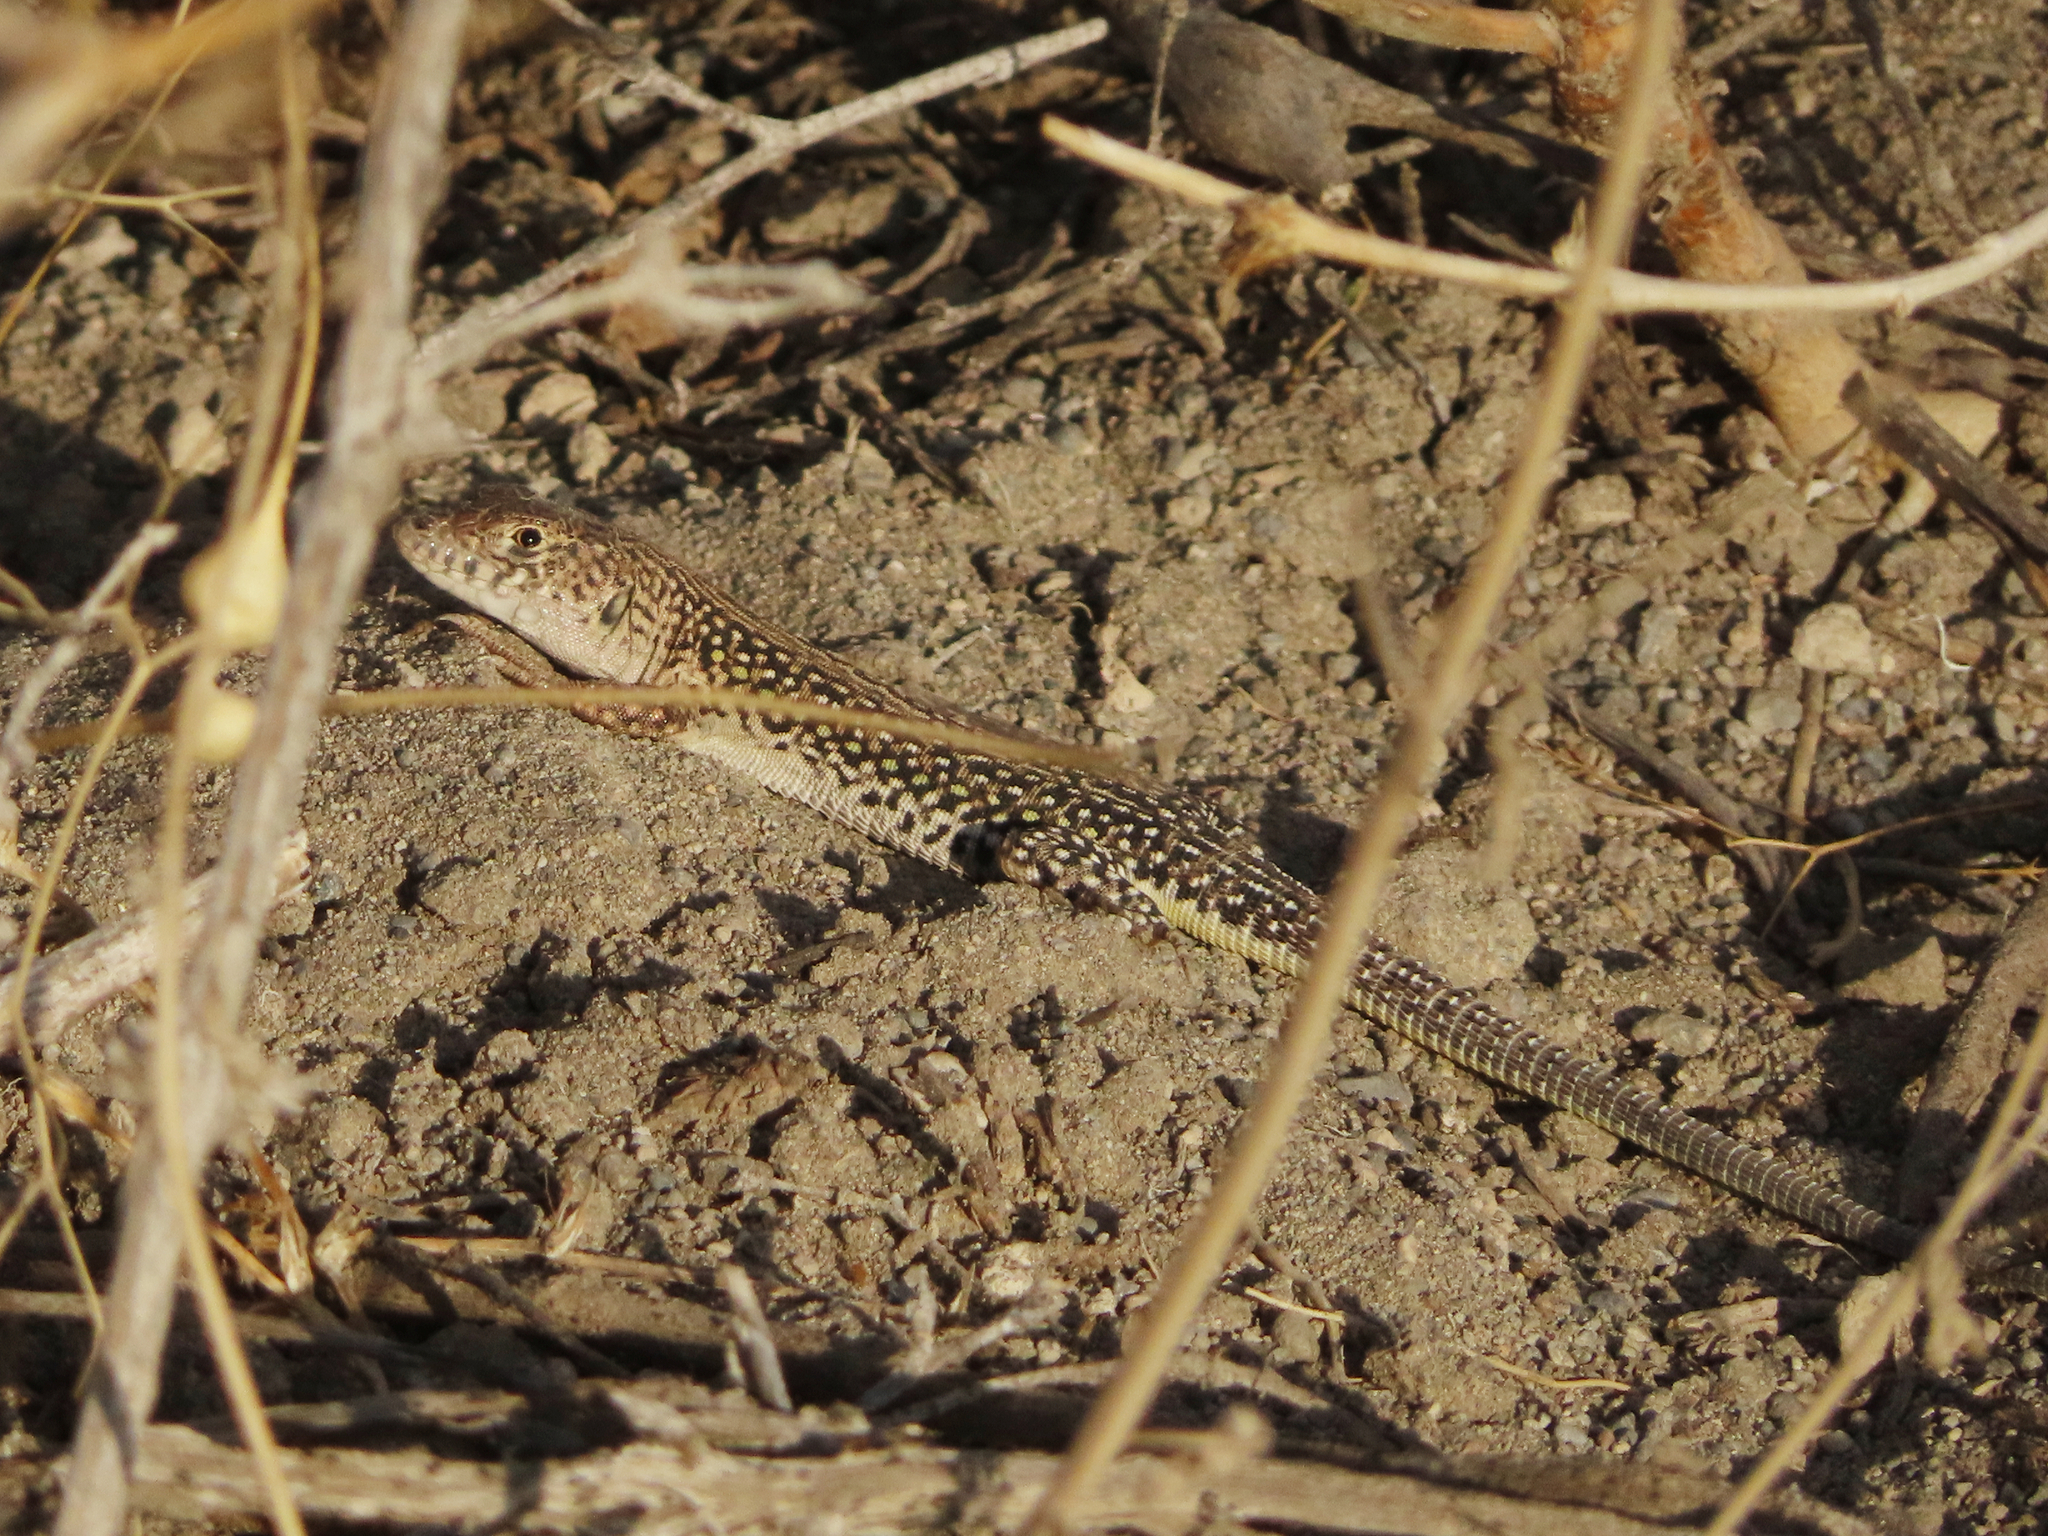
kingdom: Animalia
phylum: Chordata
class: Squamata
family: Lacertidae
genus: Eremias
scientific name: Eremias strauchi
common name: Strauch's racerunner
